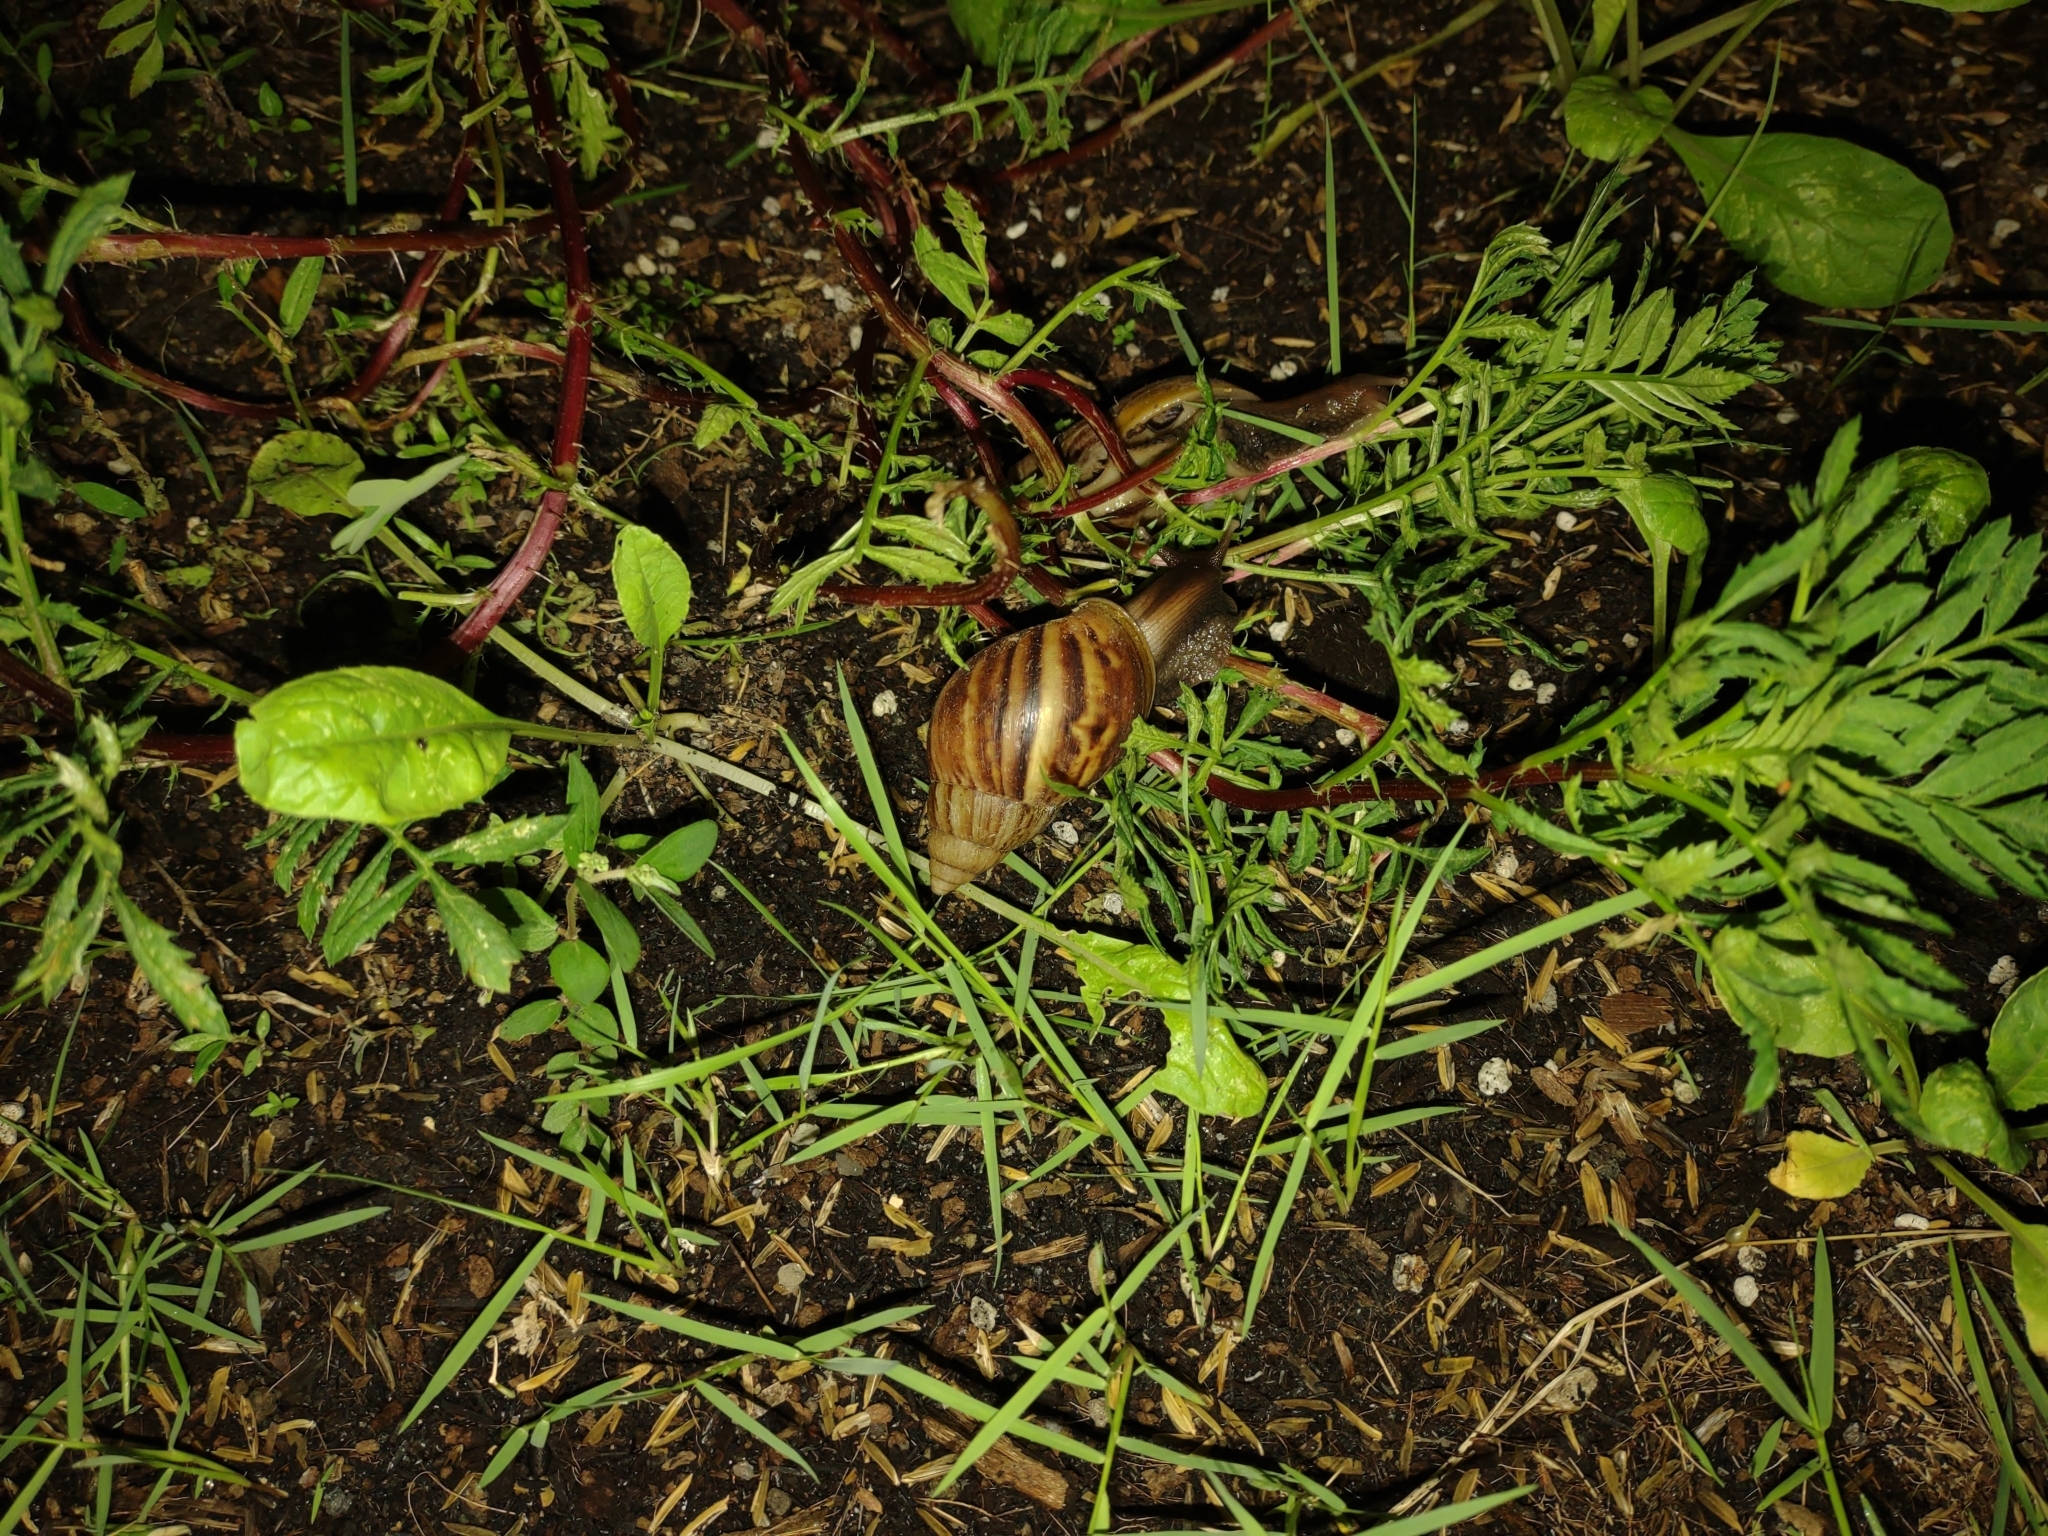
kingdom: Animalia
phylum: Mollusca
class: Gastropoda
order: Stylommatophora
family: Achatinidae
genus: Lissachatina
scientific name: Lissachatina fulica
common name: Giant african snail
